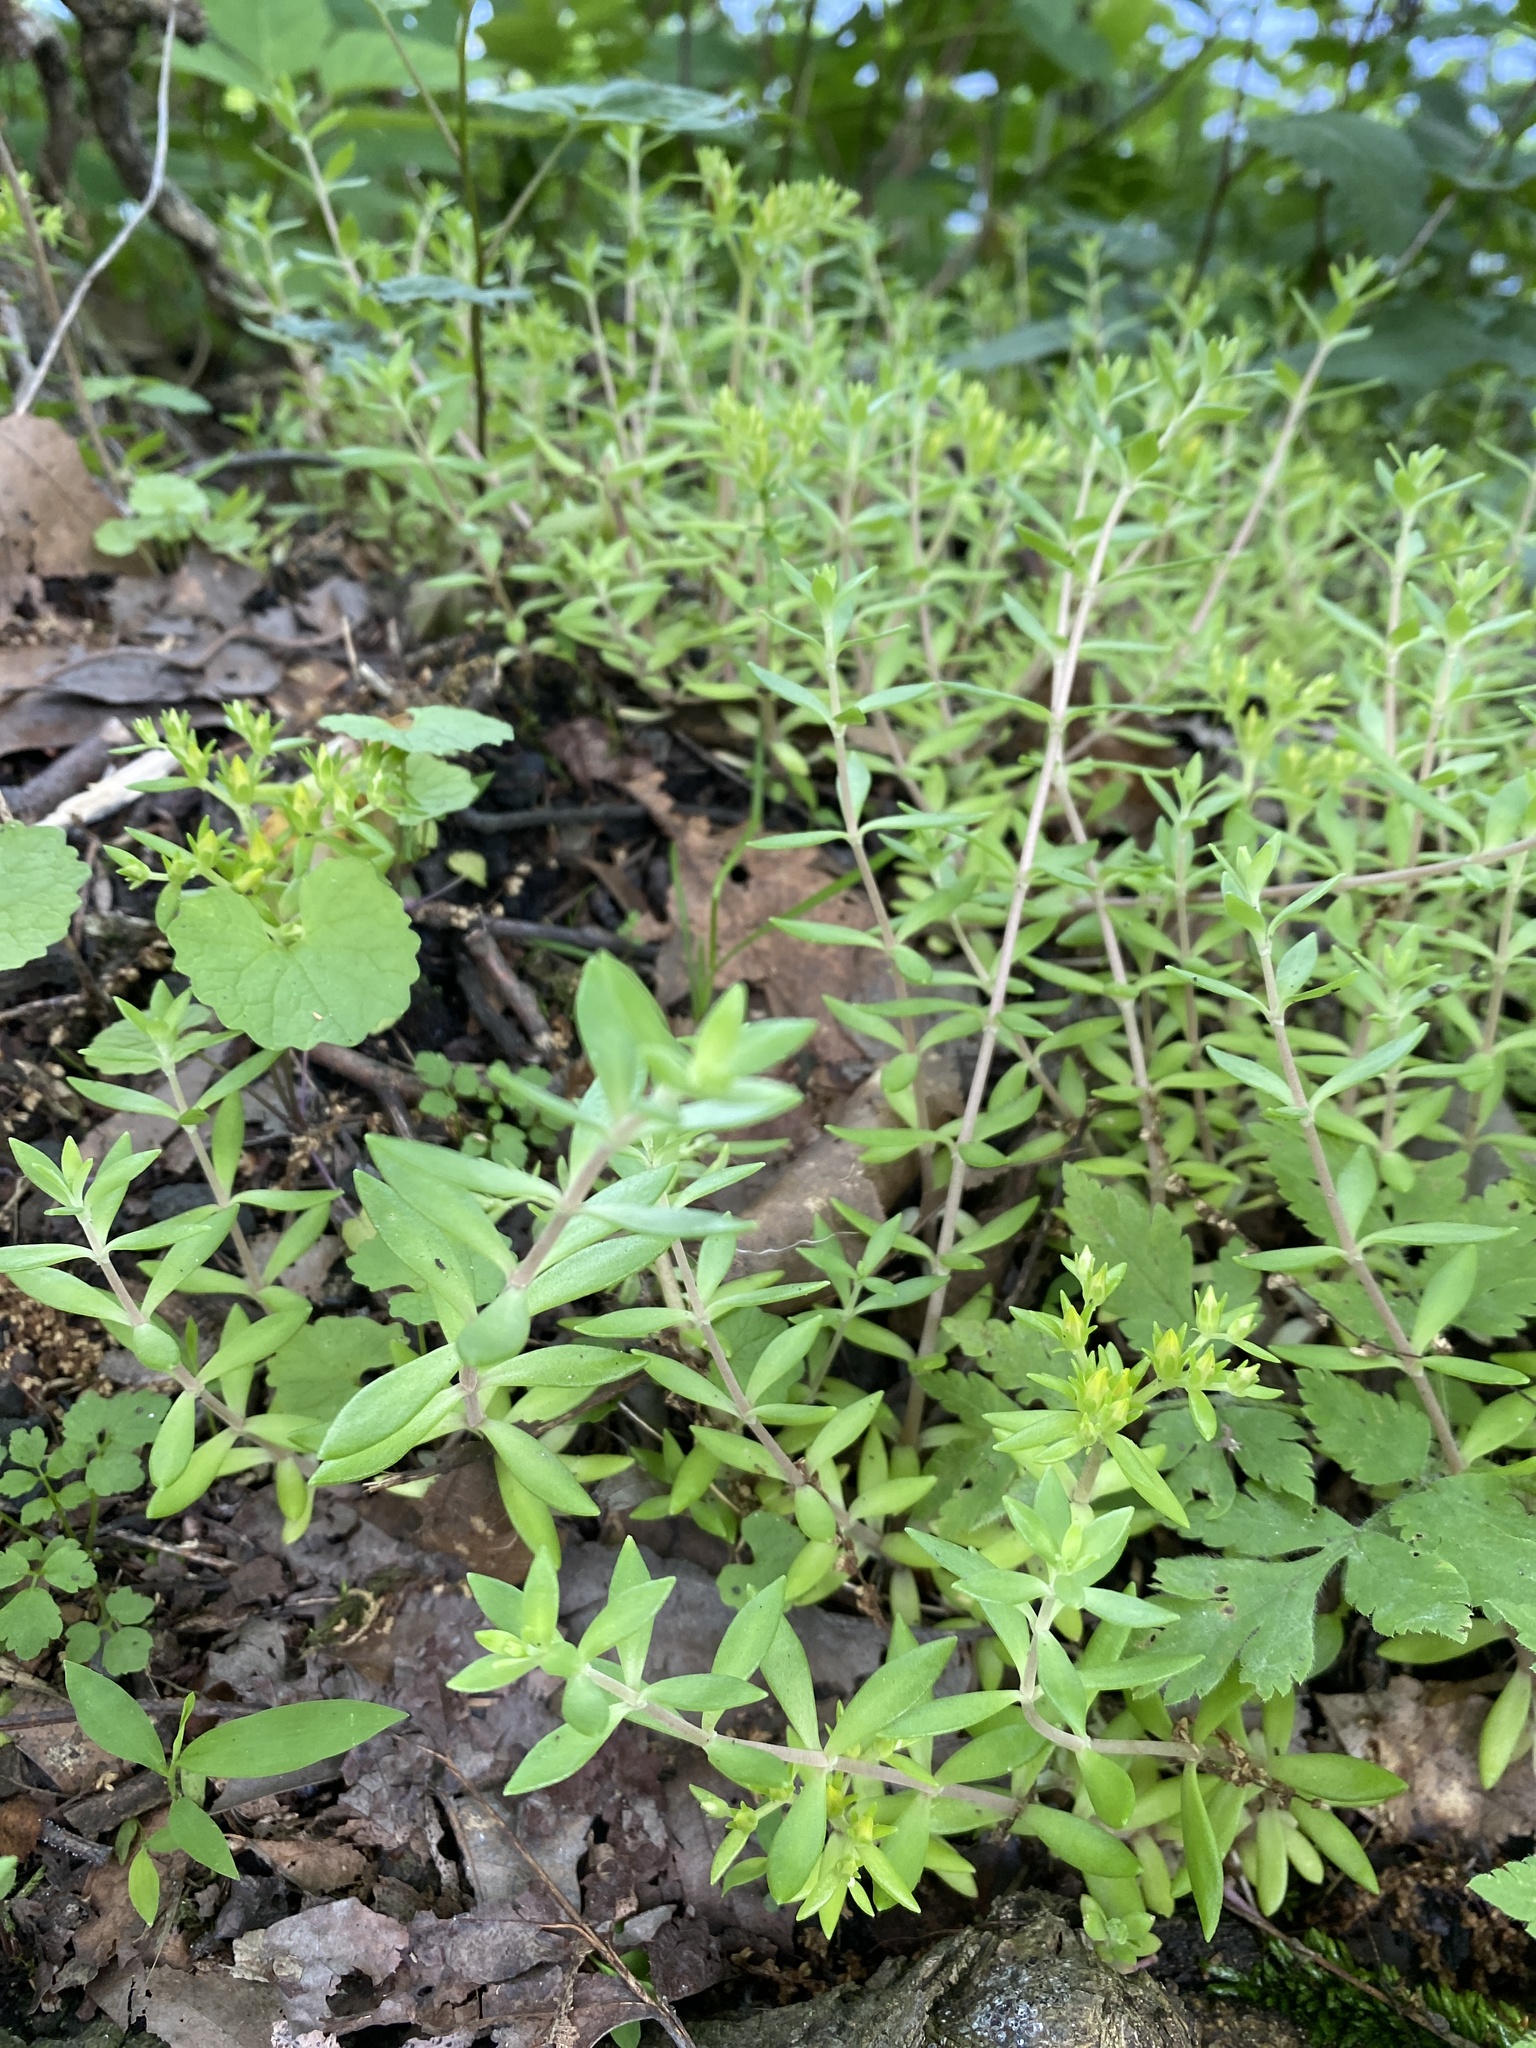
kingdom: Plantae
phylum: Tracheophyta
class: Magnoliopsida
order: Saxifragales
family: Crassulaceae
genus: Sedum
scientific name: Sedum sarmentosum
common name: Stringy stonecrop
